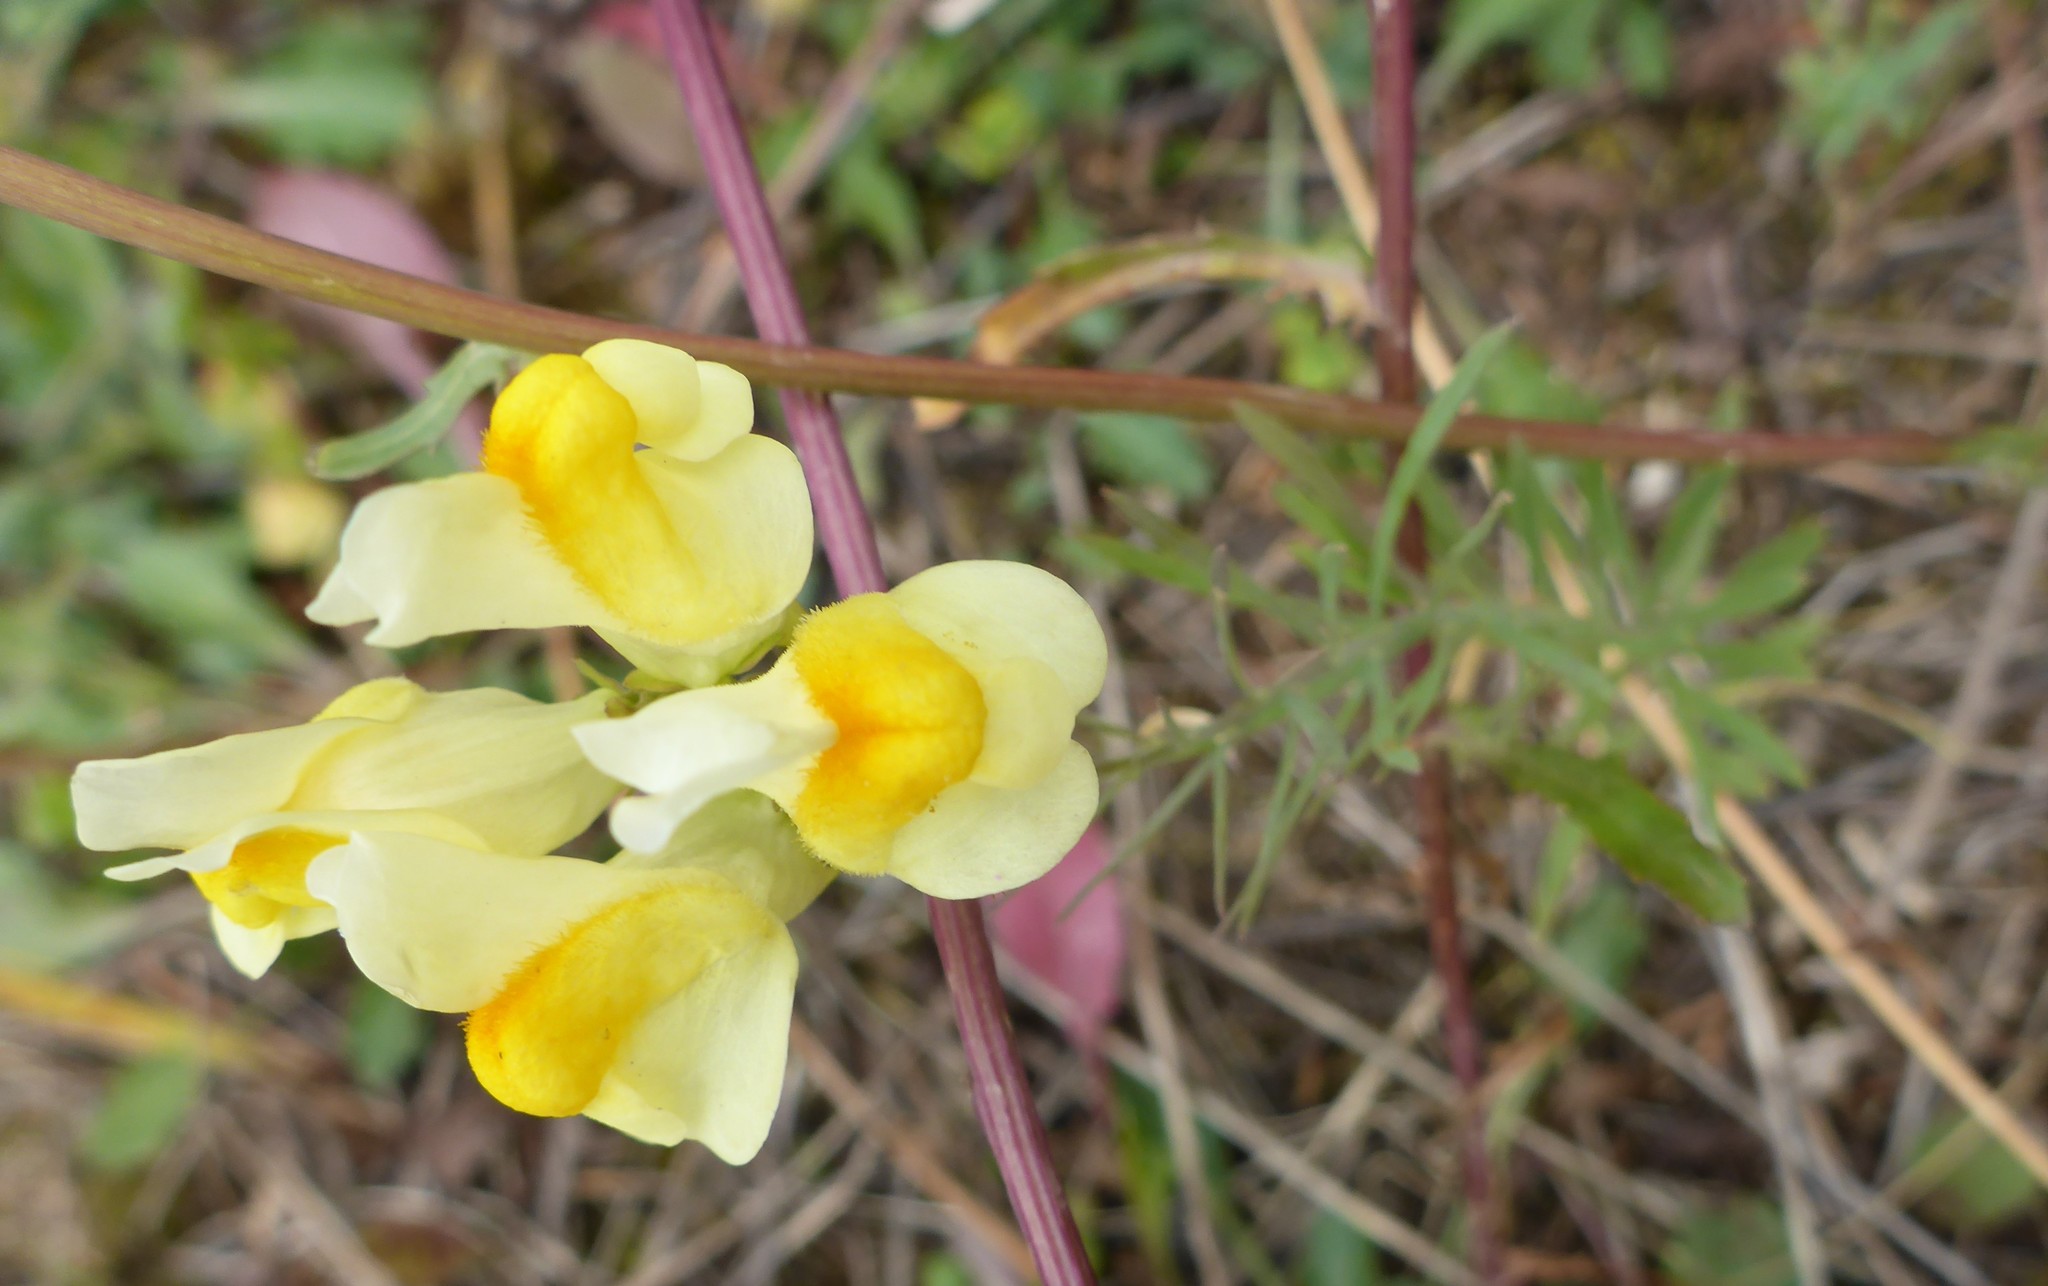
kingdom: Plantae
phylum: Tracheophyta
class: Magnoliopsida
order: Lamiales
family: Plantaginaceae
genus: Linaria
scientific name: Linaria vulgaris
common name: Butter and eggs
